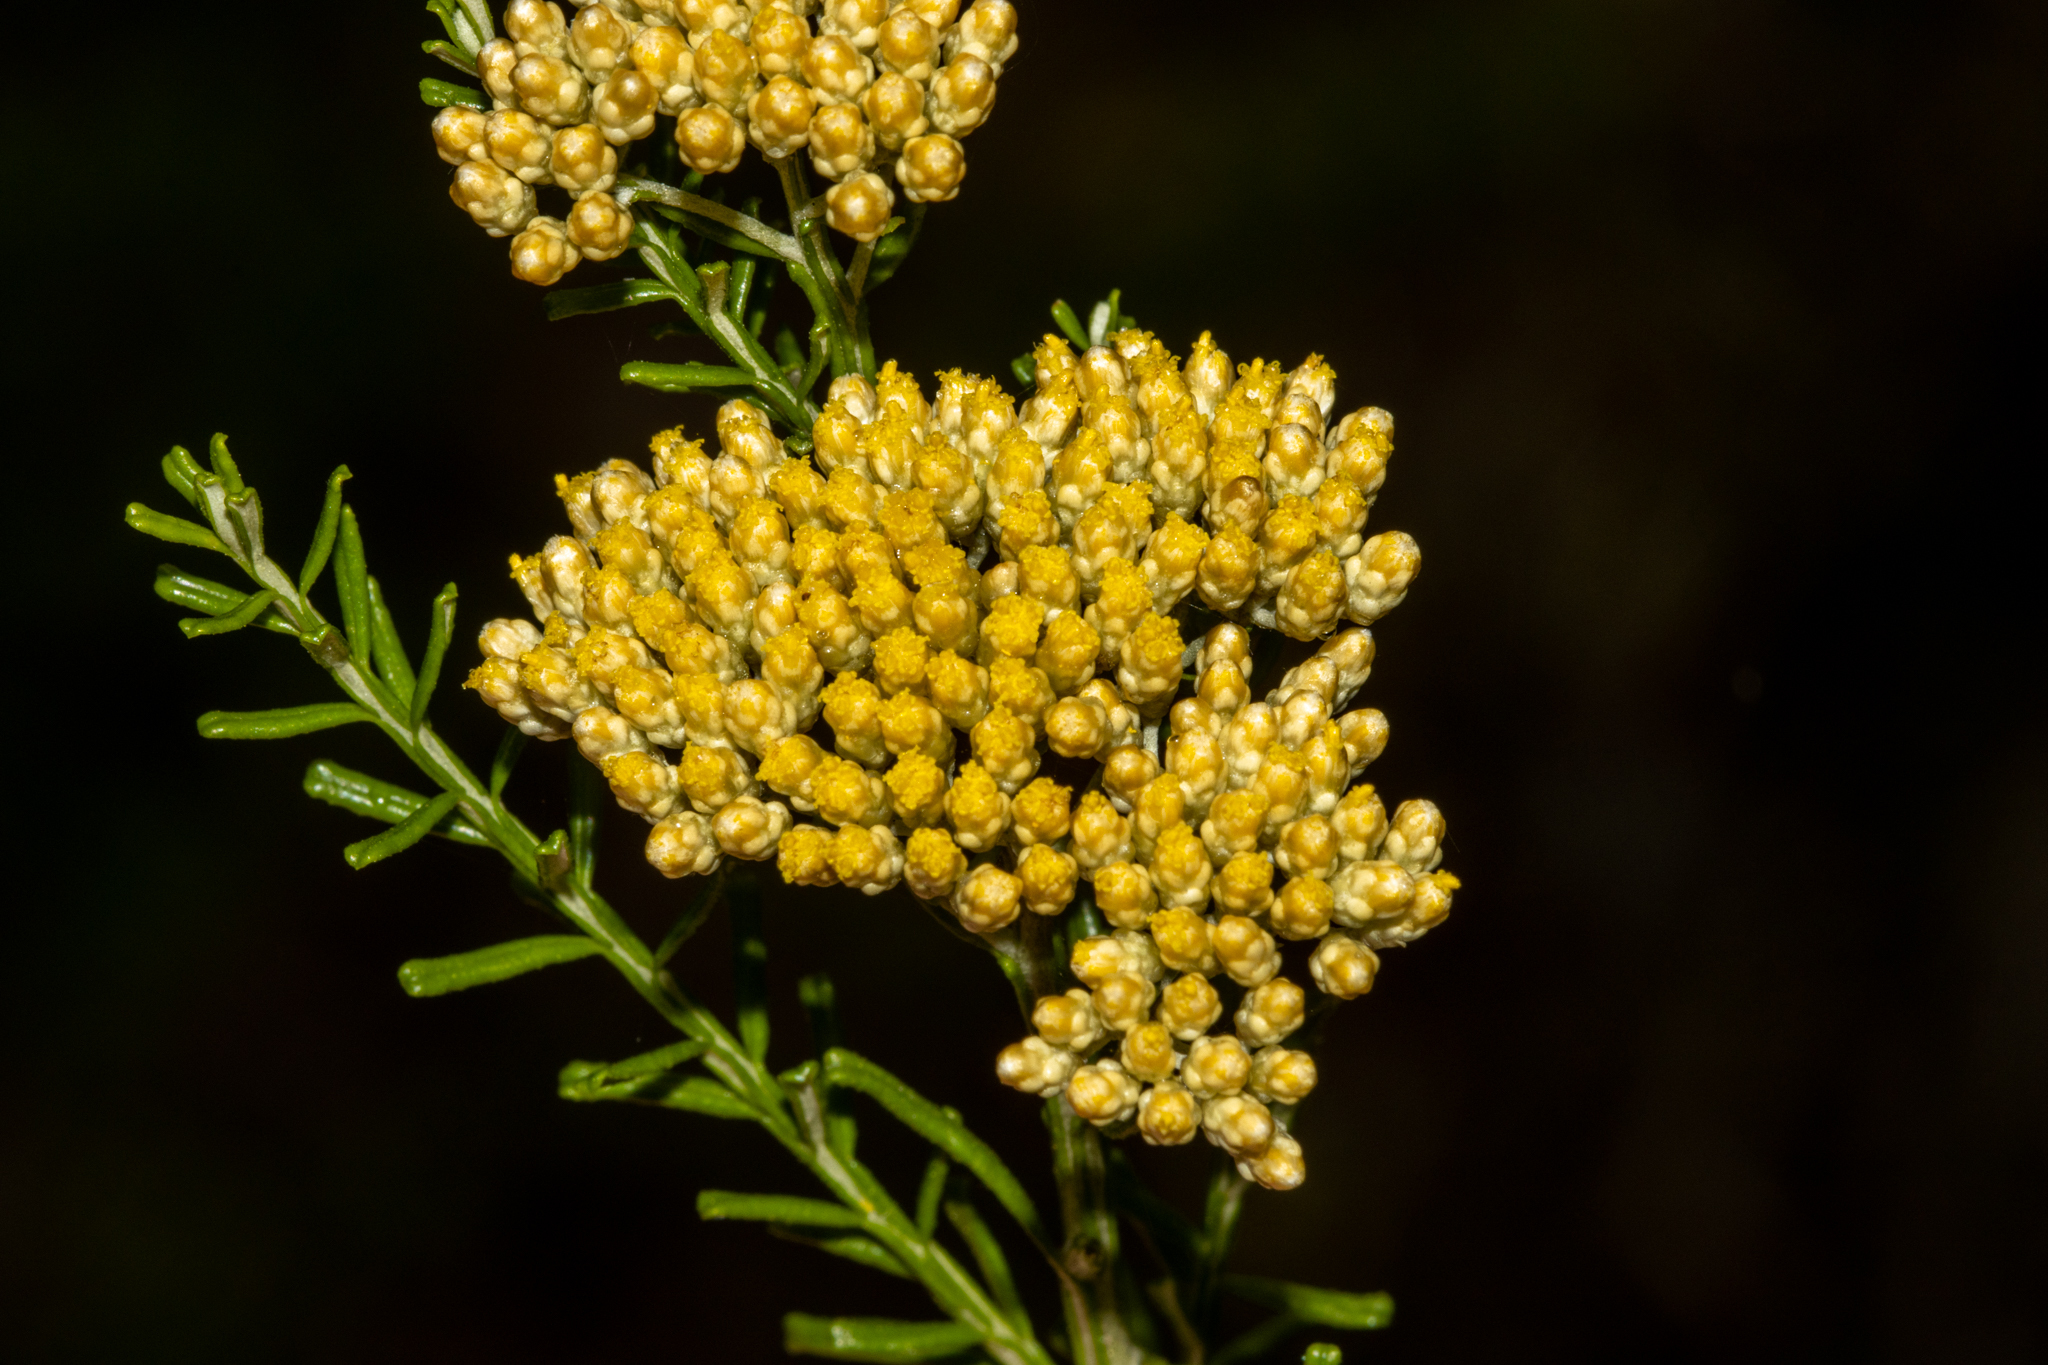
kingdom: Plantae
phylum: Tracheophyta
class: Magnoliopsida
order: Asterales
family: Asteraceae
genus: Ozothamnus
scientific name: Ozothamnus adnatus
